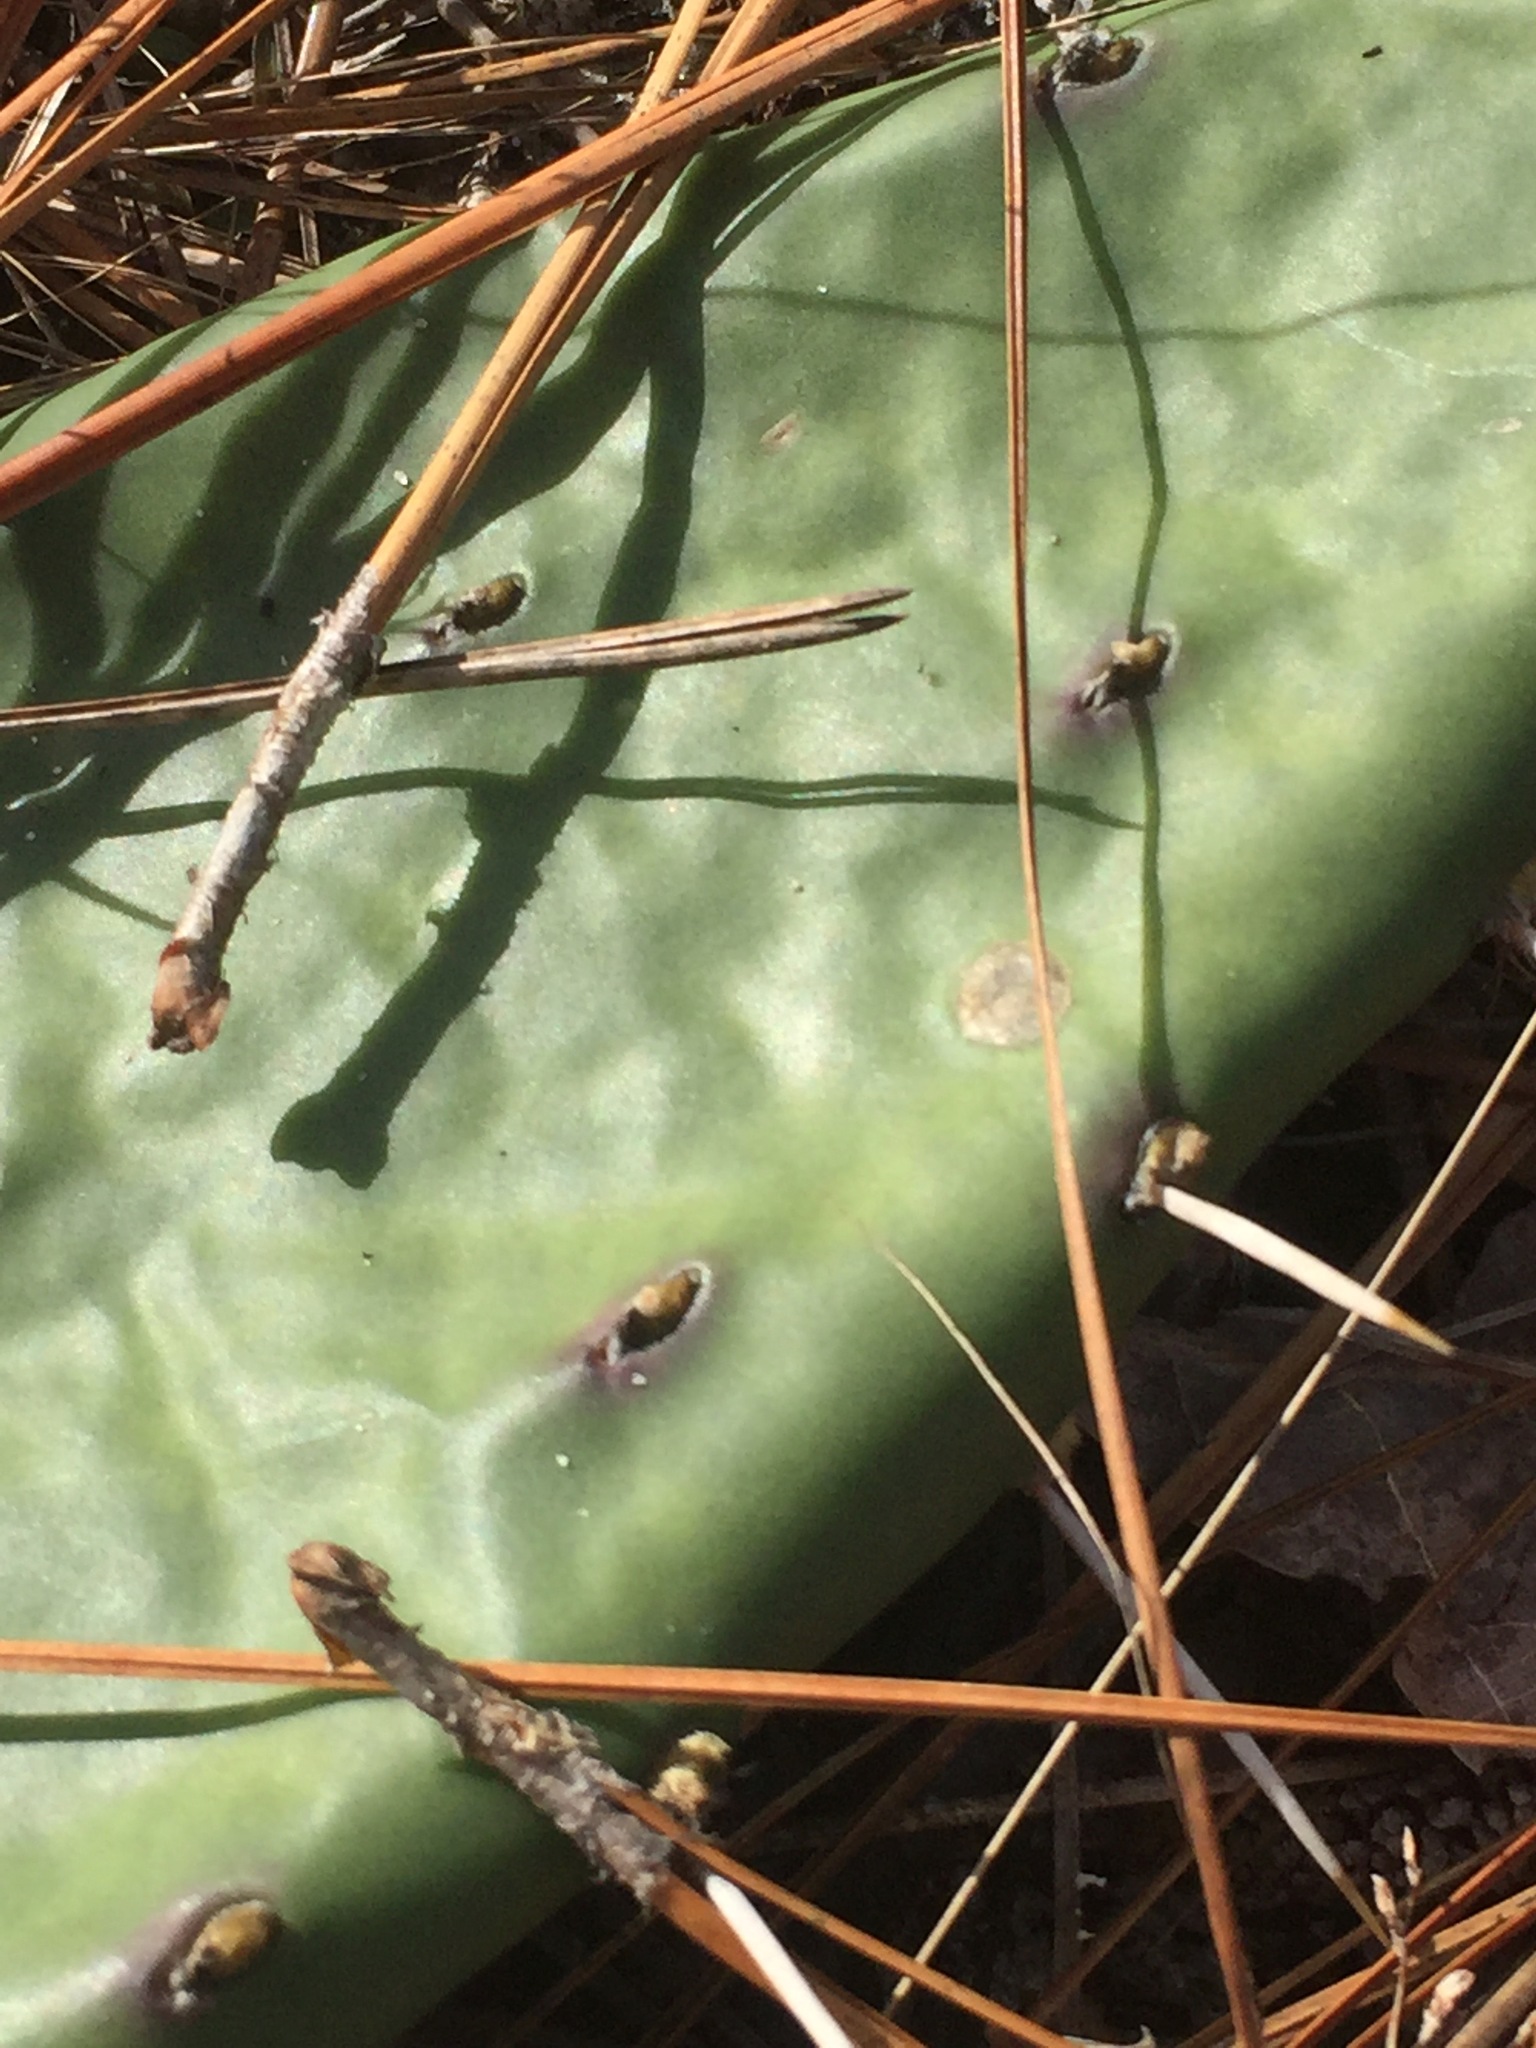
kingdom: Plantae
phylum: Tracheophyta
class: Magnoliopsida
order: Caryophyllales
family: Cactaceae
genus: Opuntia
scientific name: Opuntia mesacantha
